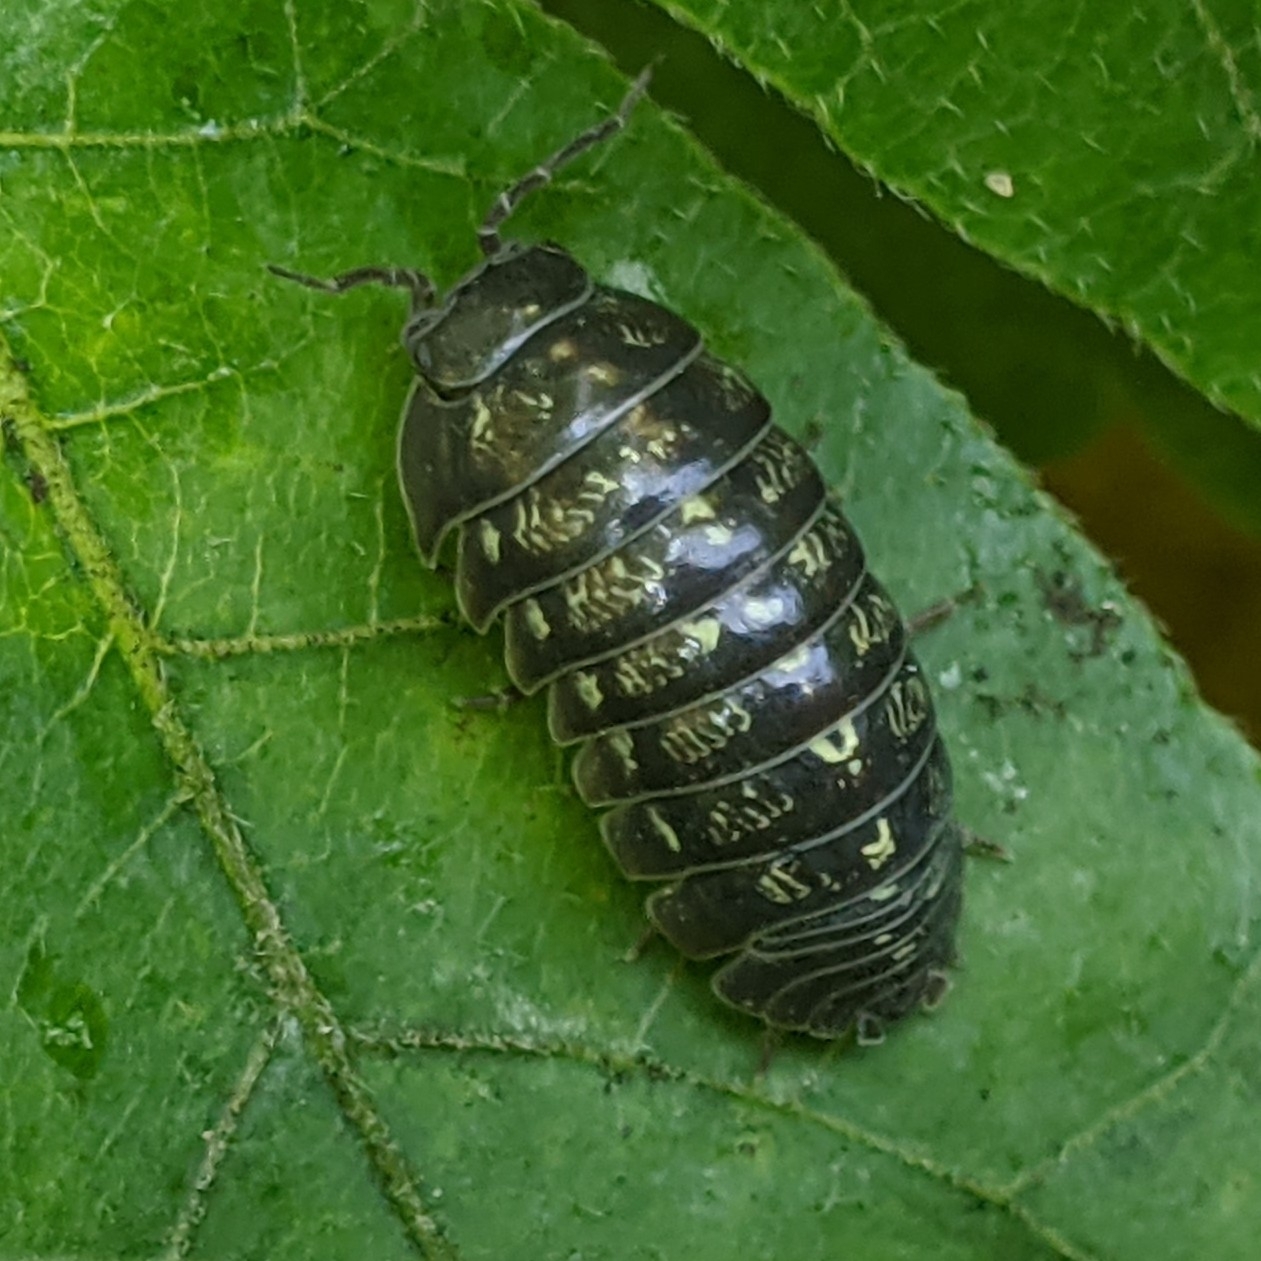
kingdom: Animalia
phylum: Arthropoda
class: Malacostraca
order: Isopoda
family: Armadillidiidae
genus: Armadillidium
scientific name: Armadillidium vulgare
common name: Common pill woodlouse
